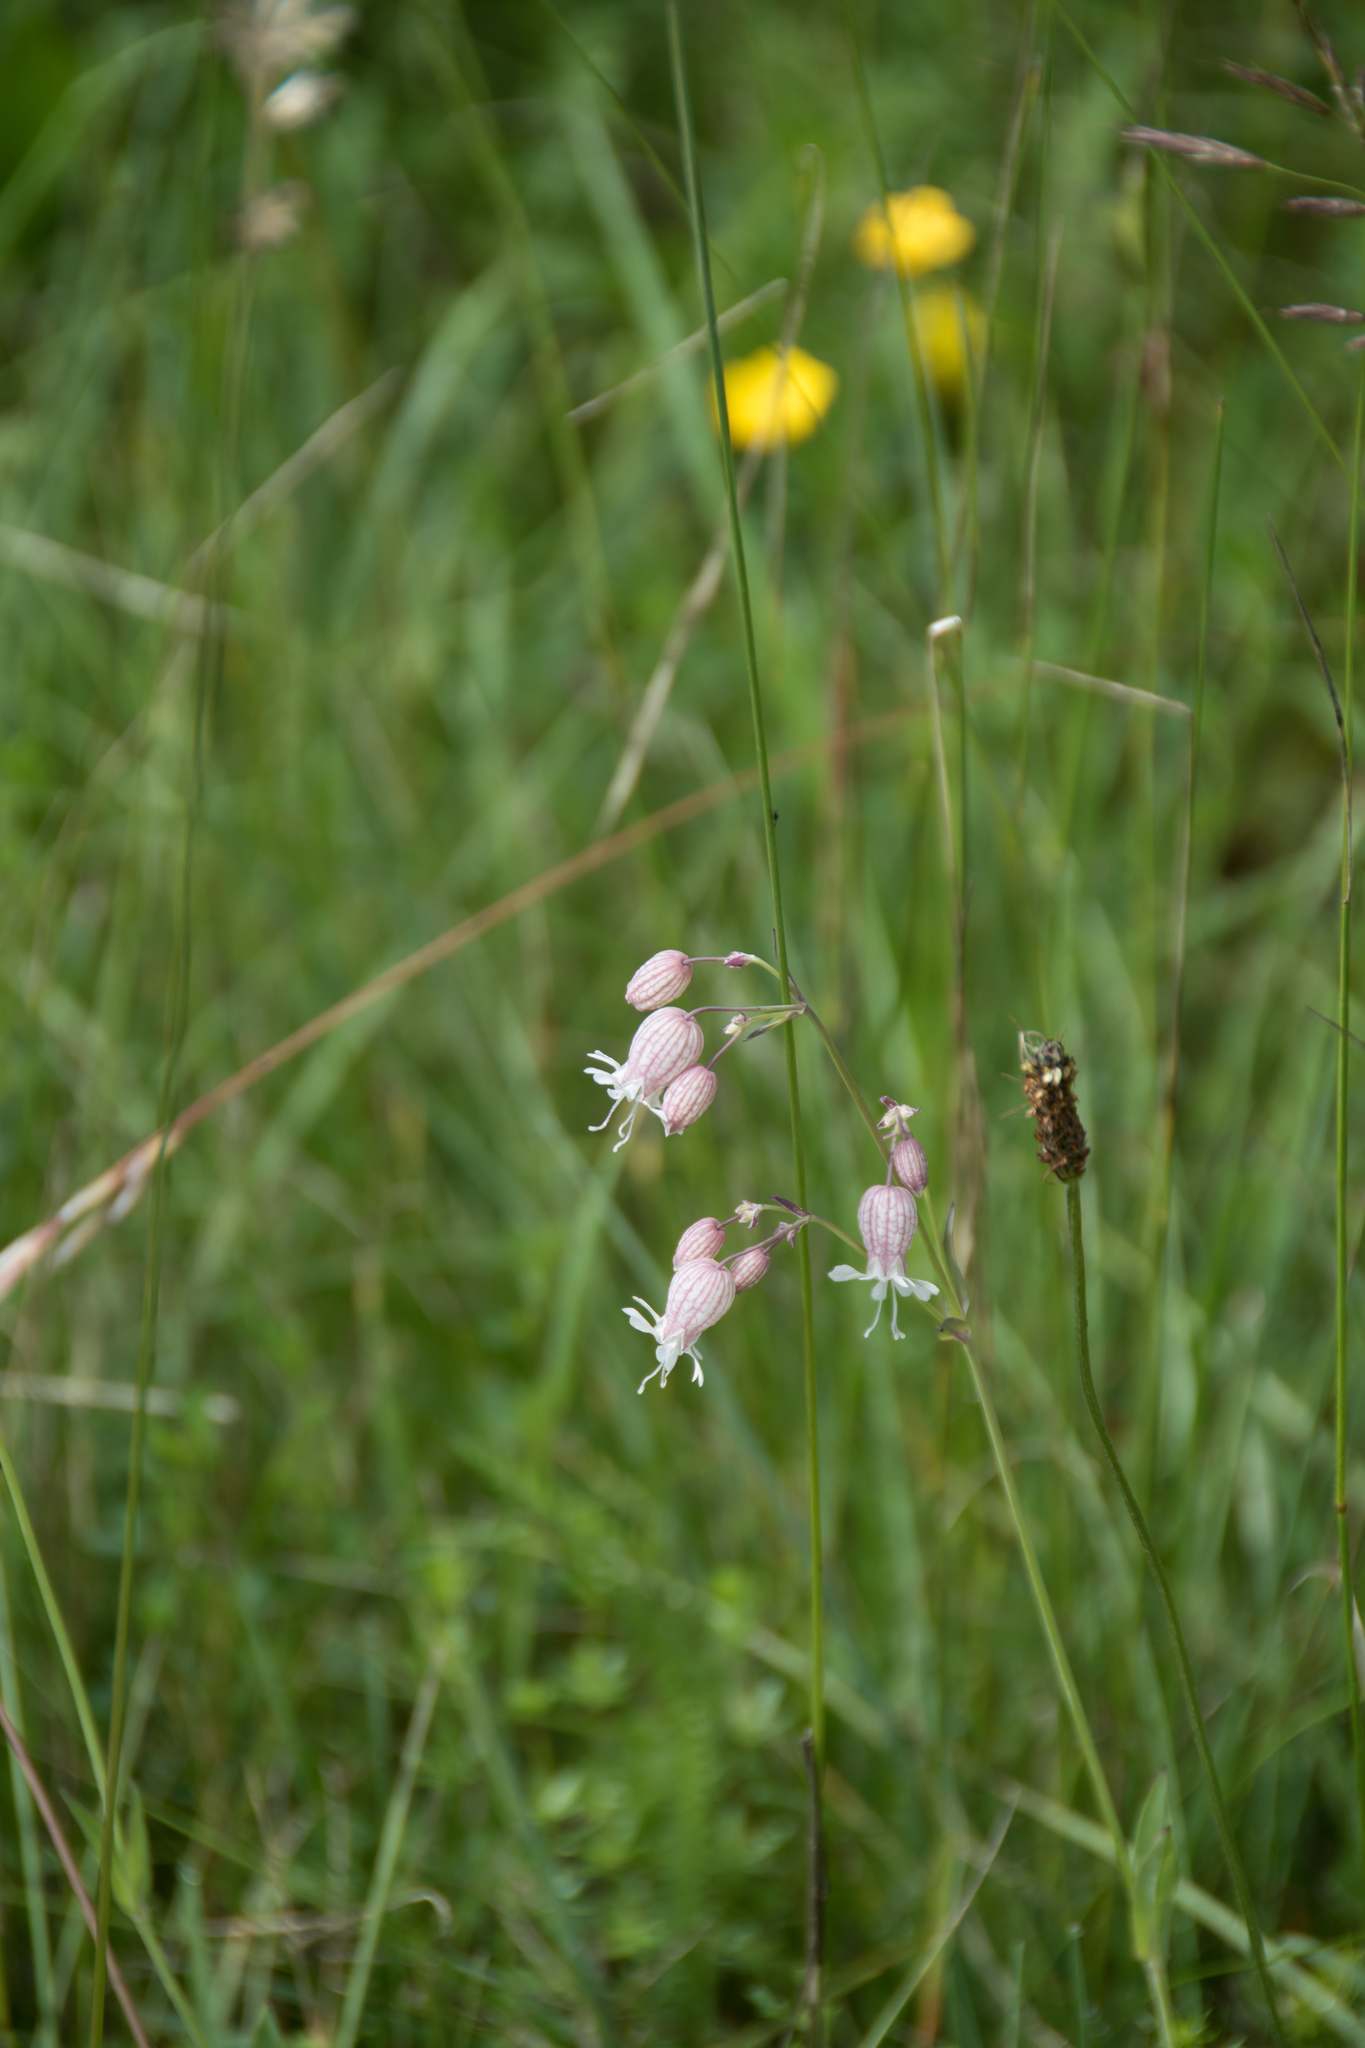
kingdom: Plantae
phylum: Tracheophyta
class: Magnoliopsida
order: Caryophyllales
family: Caryophyllaceae
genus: Silene
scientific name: Silene vulgaris
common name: Bladder campion
